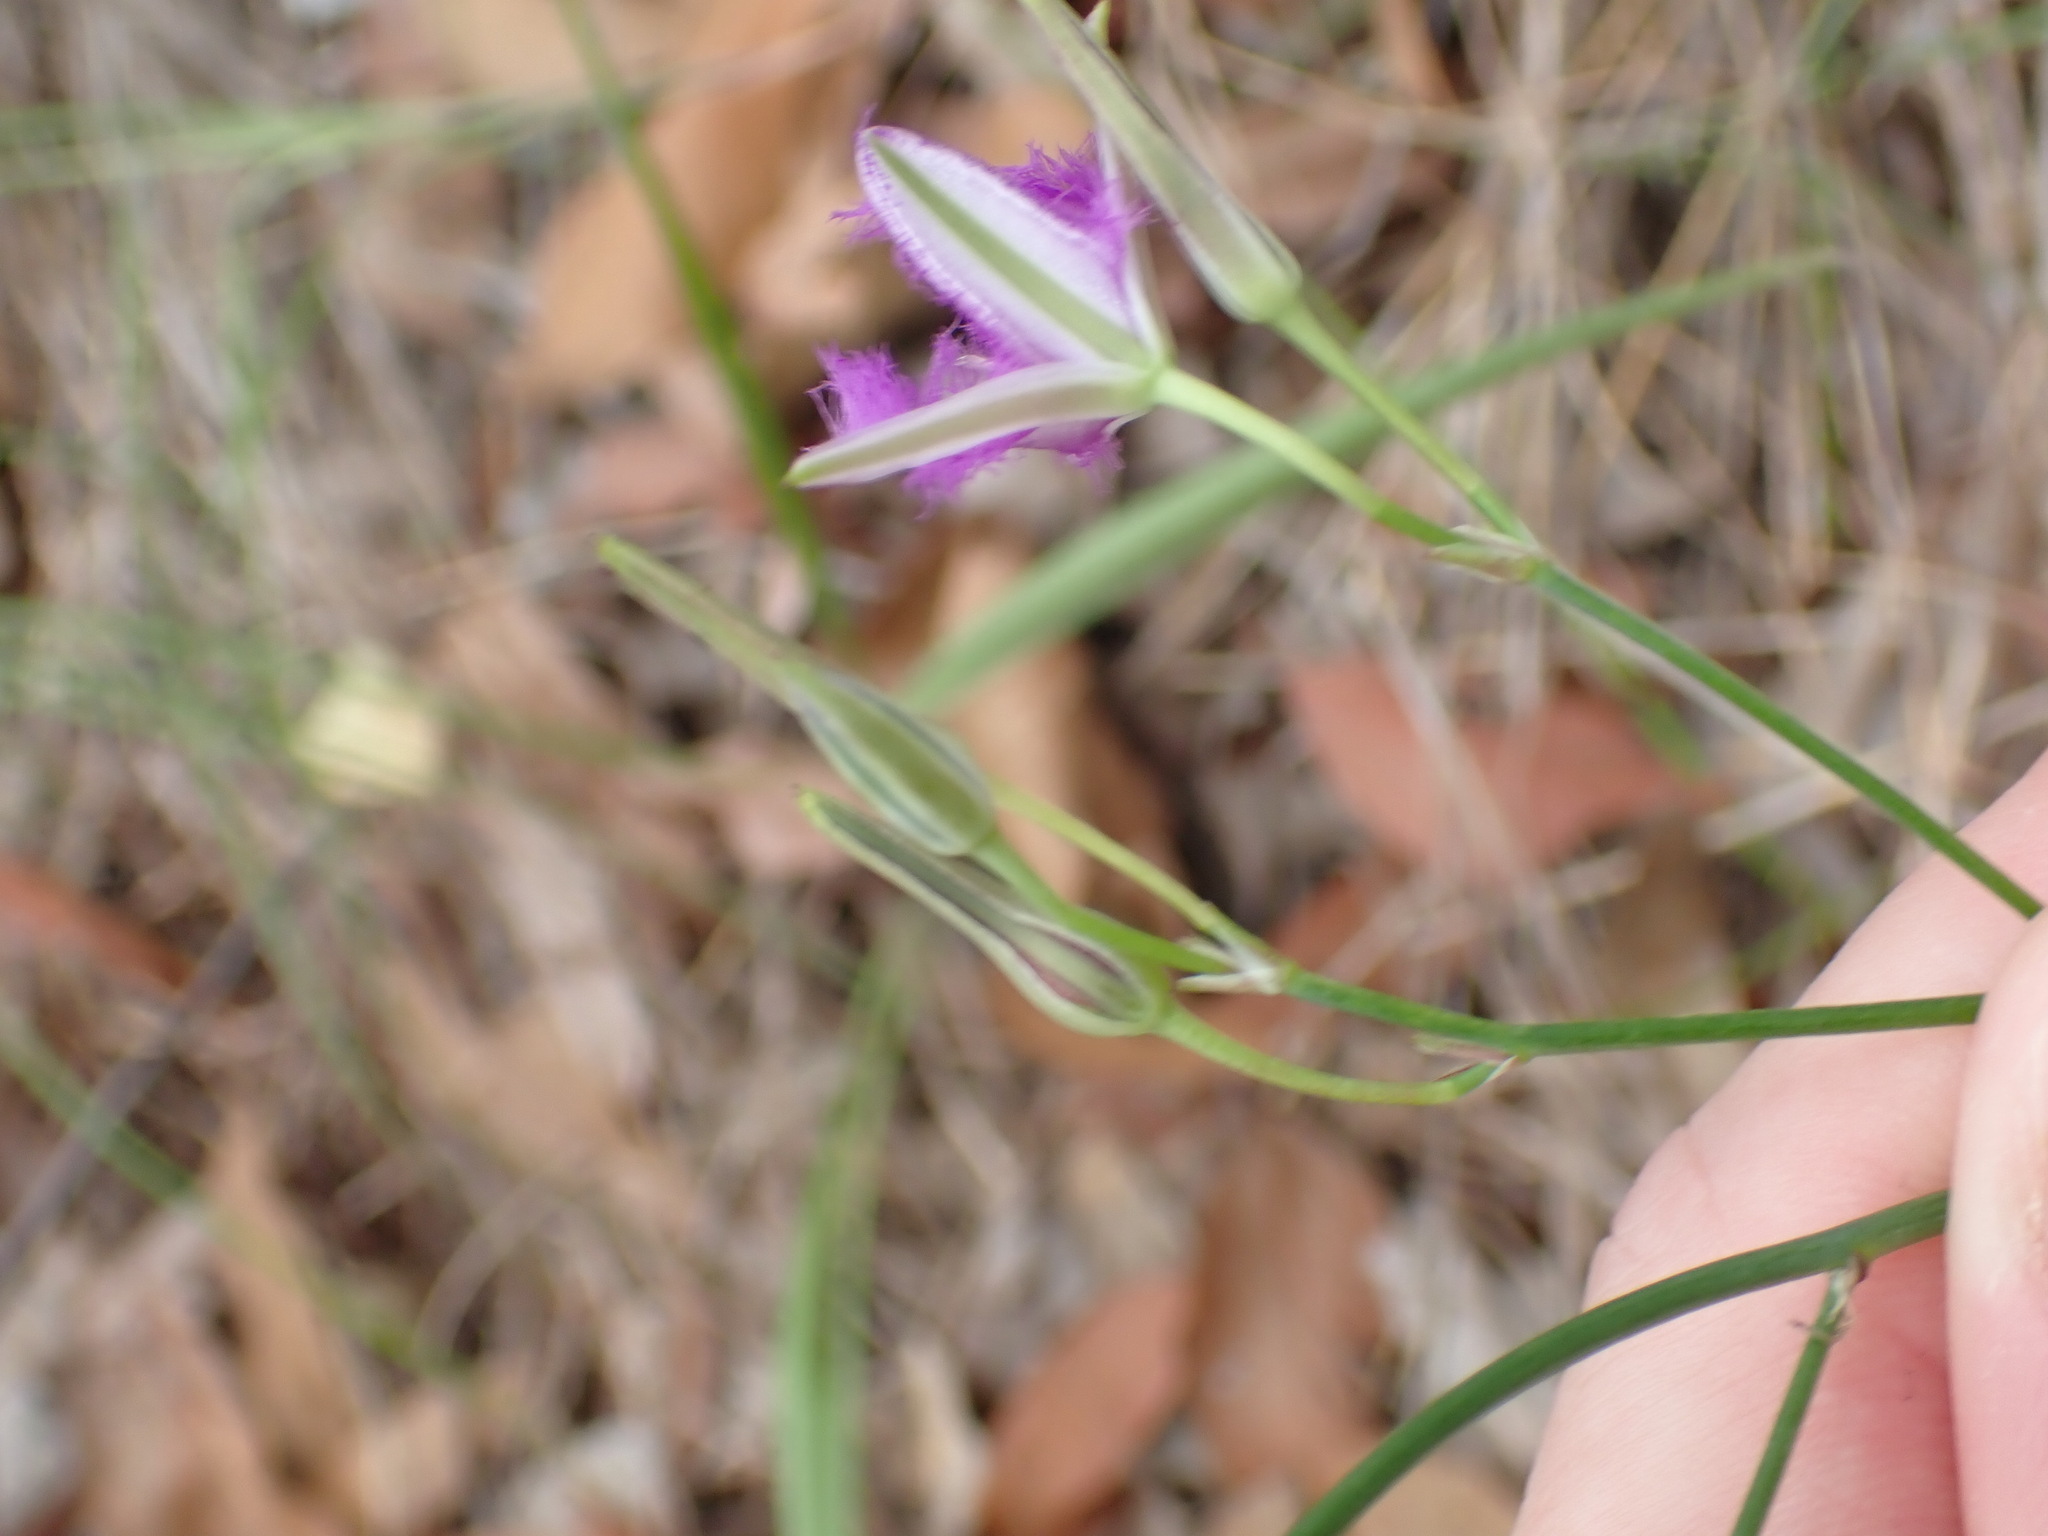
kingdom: Plantae
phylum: Tracheophyta
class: Liliopsida
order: Asparagales
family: Asparagaceae
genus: Thysanotus
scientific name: Thysanotus tuberosus
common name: Common fringed-lily
